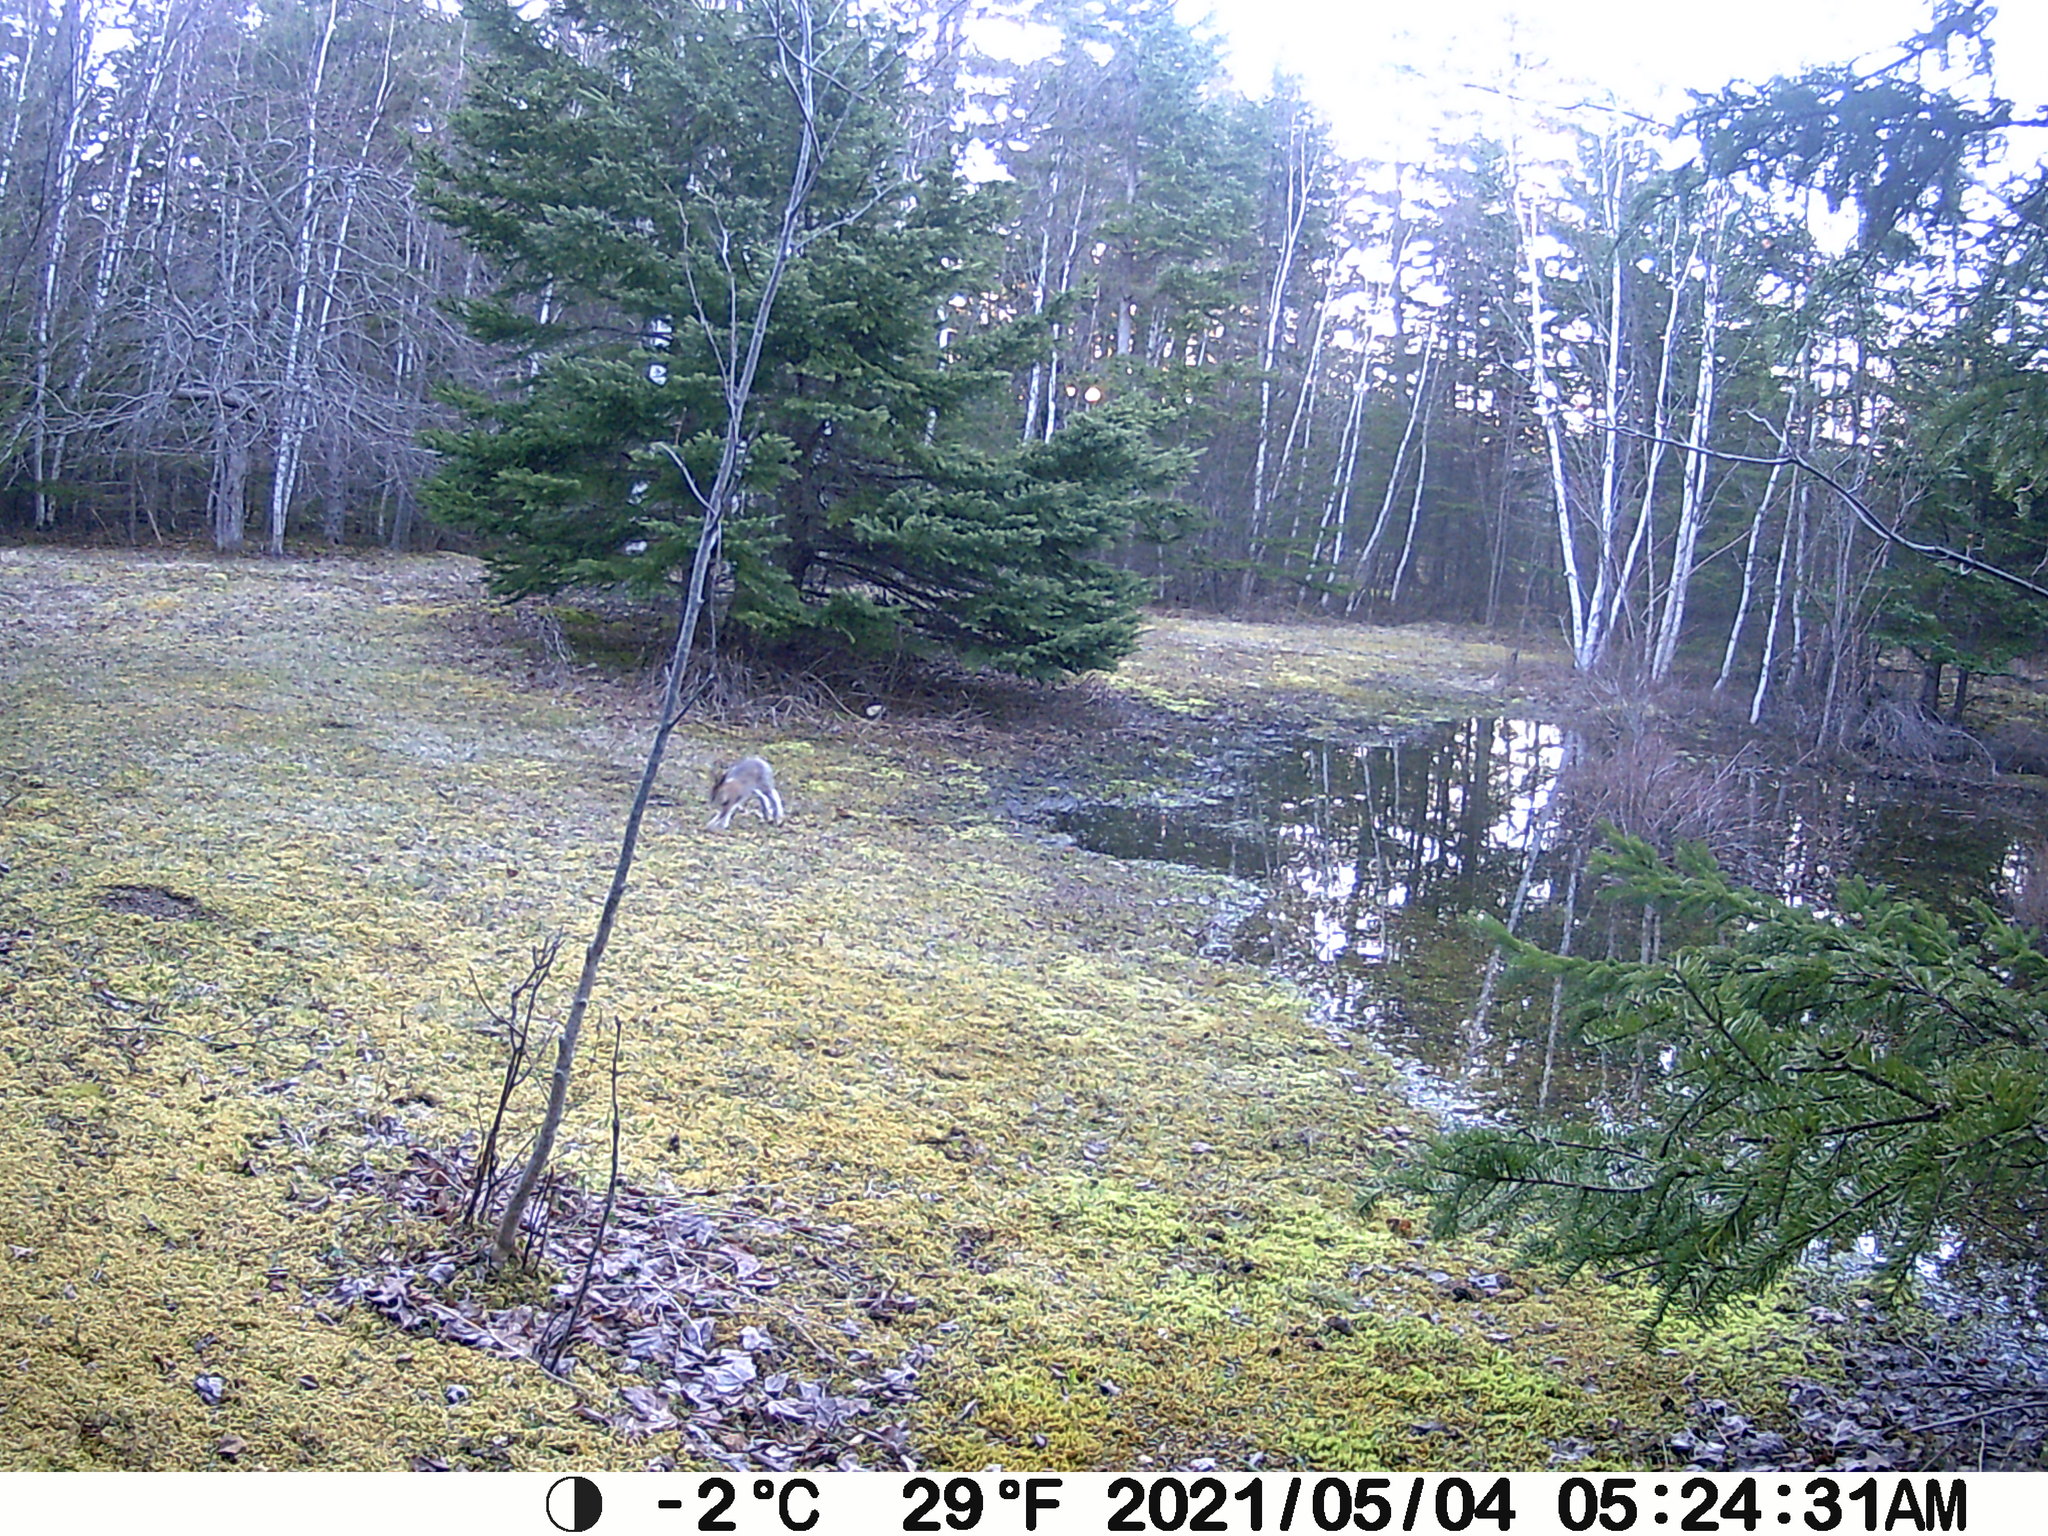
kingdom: Animalia
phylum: Chordata
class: Mammalia
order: Lagomorpha
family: Leporidae
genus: Lepus
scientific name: Lepus americanus
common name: Snowshoe hare
